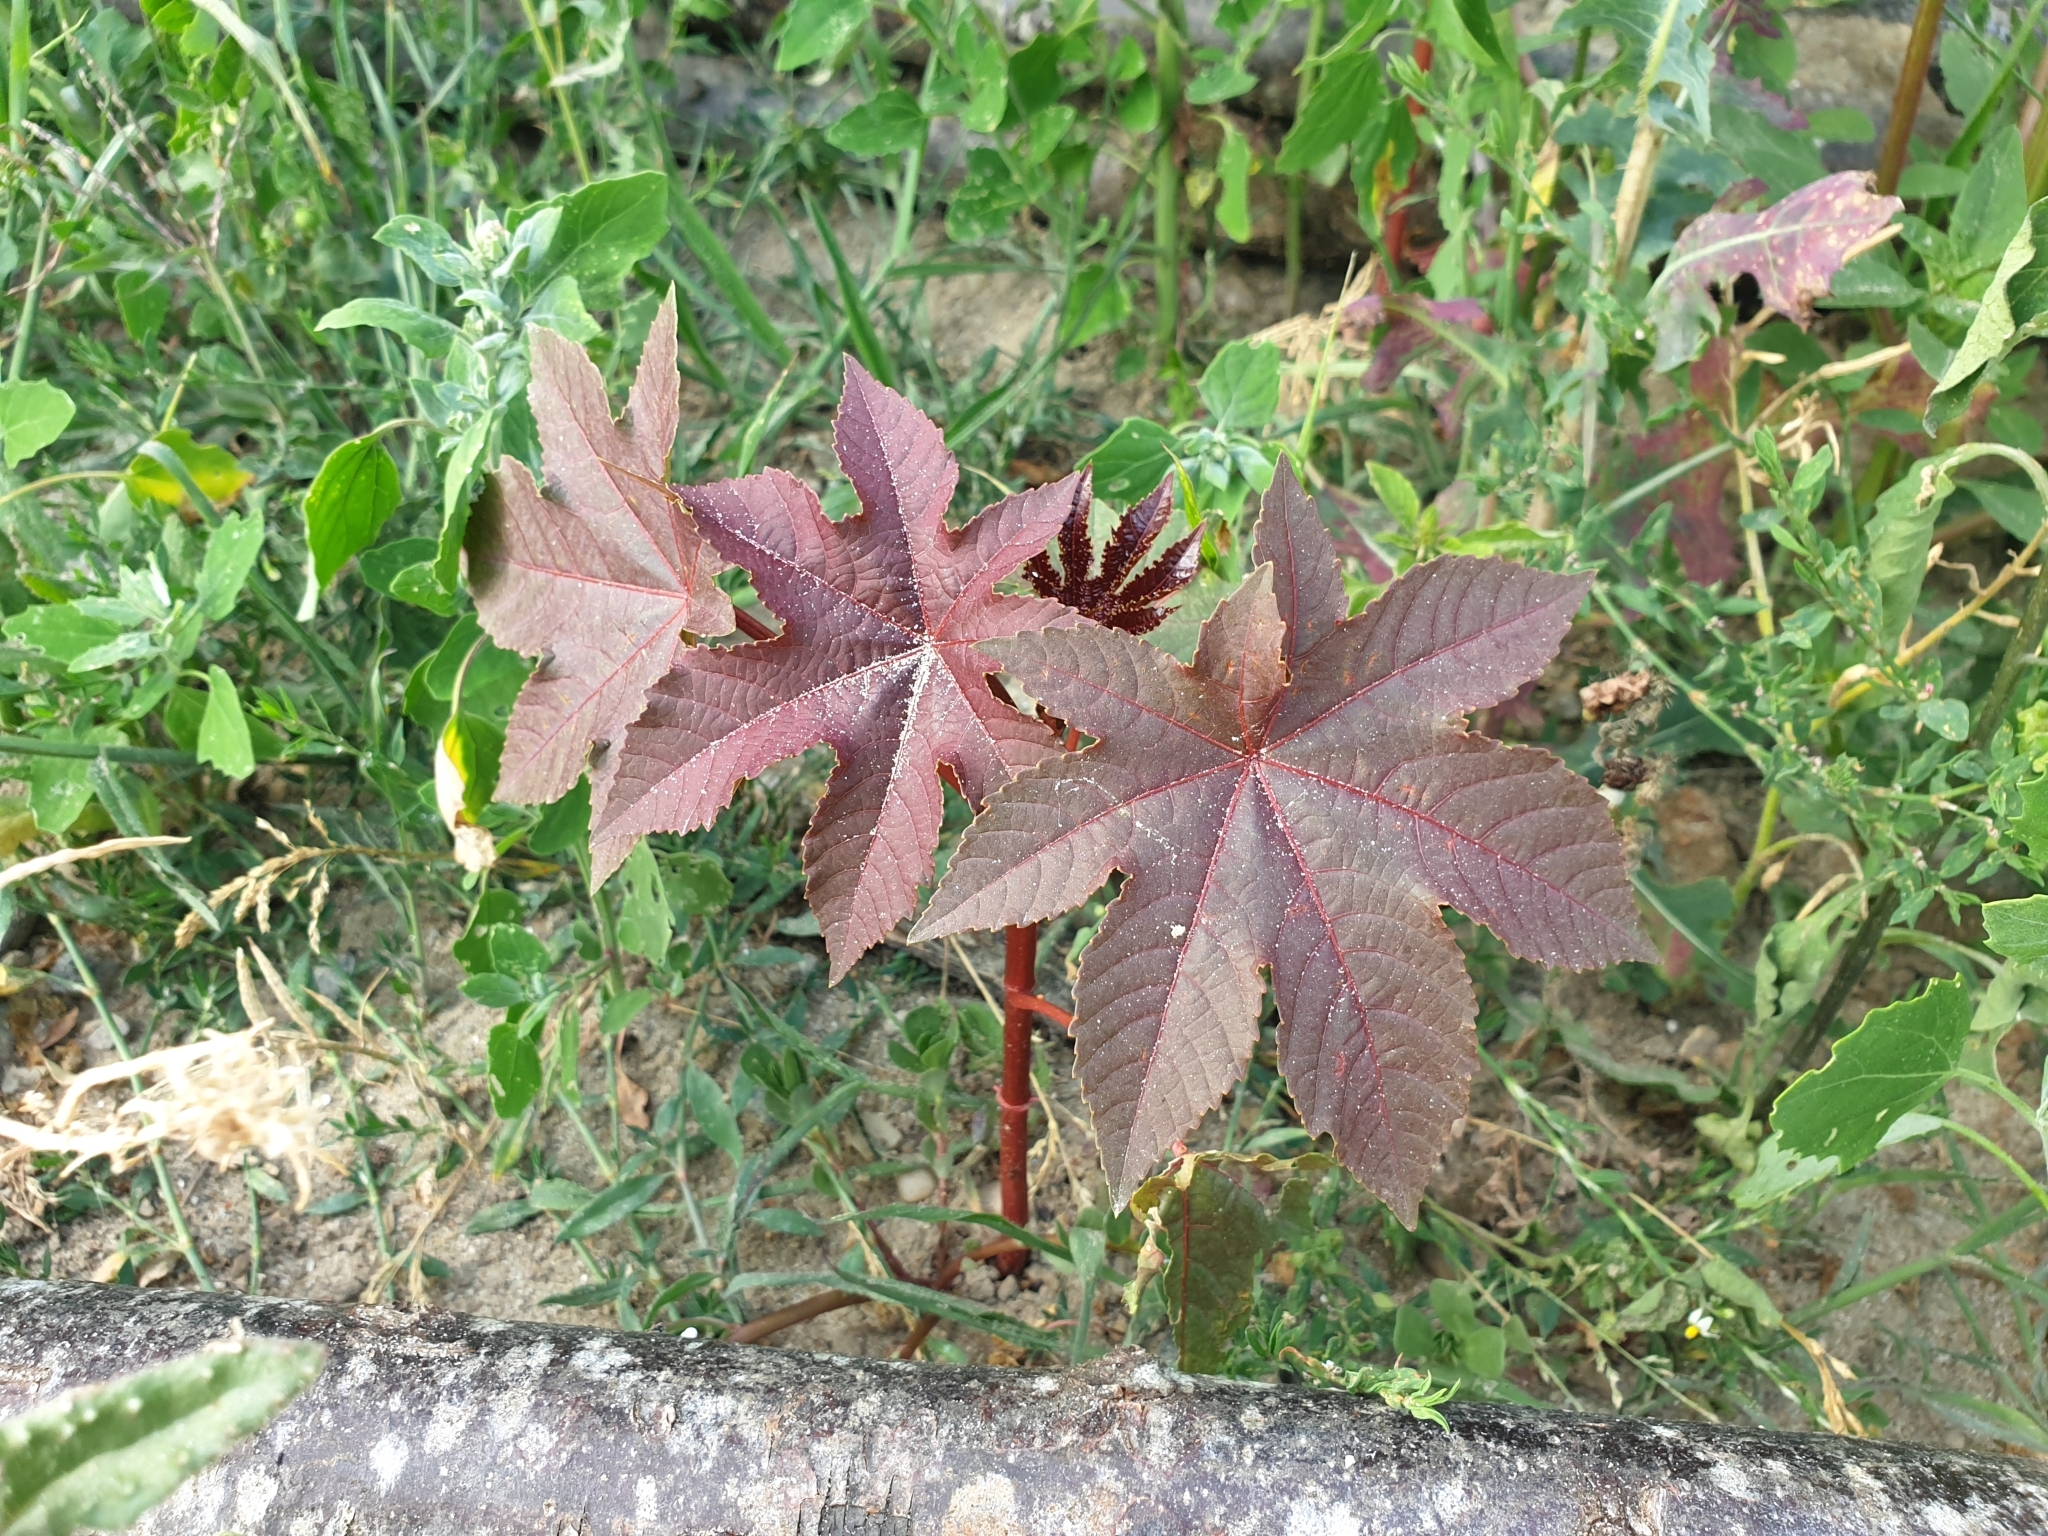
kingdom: Plantae
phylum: Tracheophyta
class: Magnoliopsida
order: Malpighiales
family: Euphorbiaceae
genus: Ricinus
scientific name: Ricinus communis
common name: Castor-oil-plant
